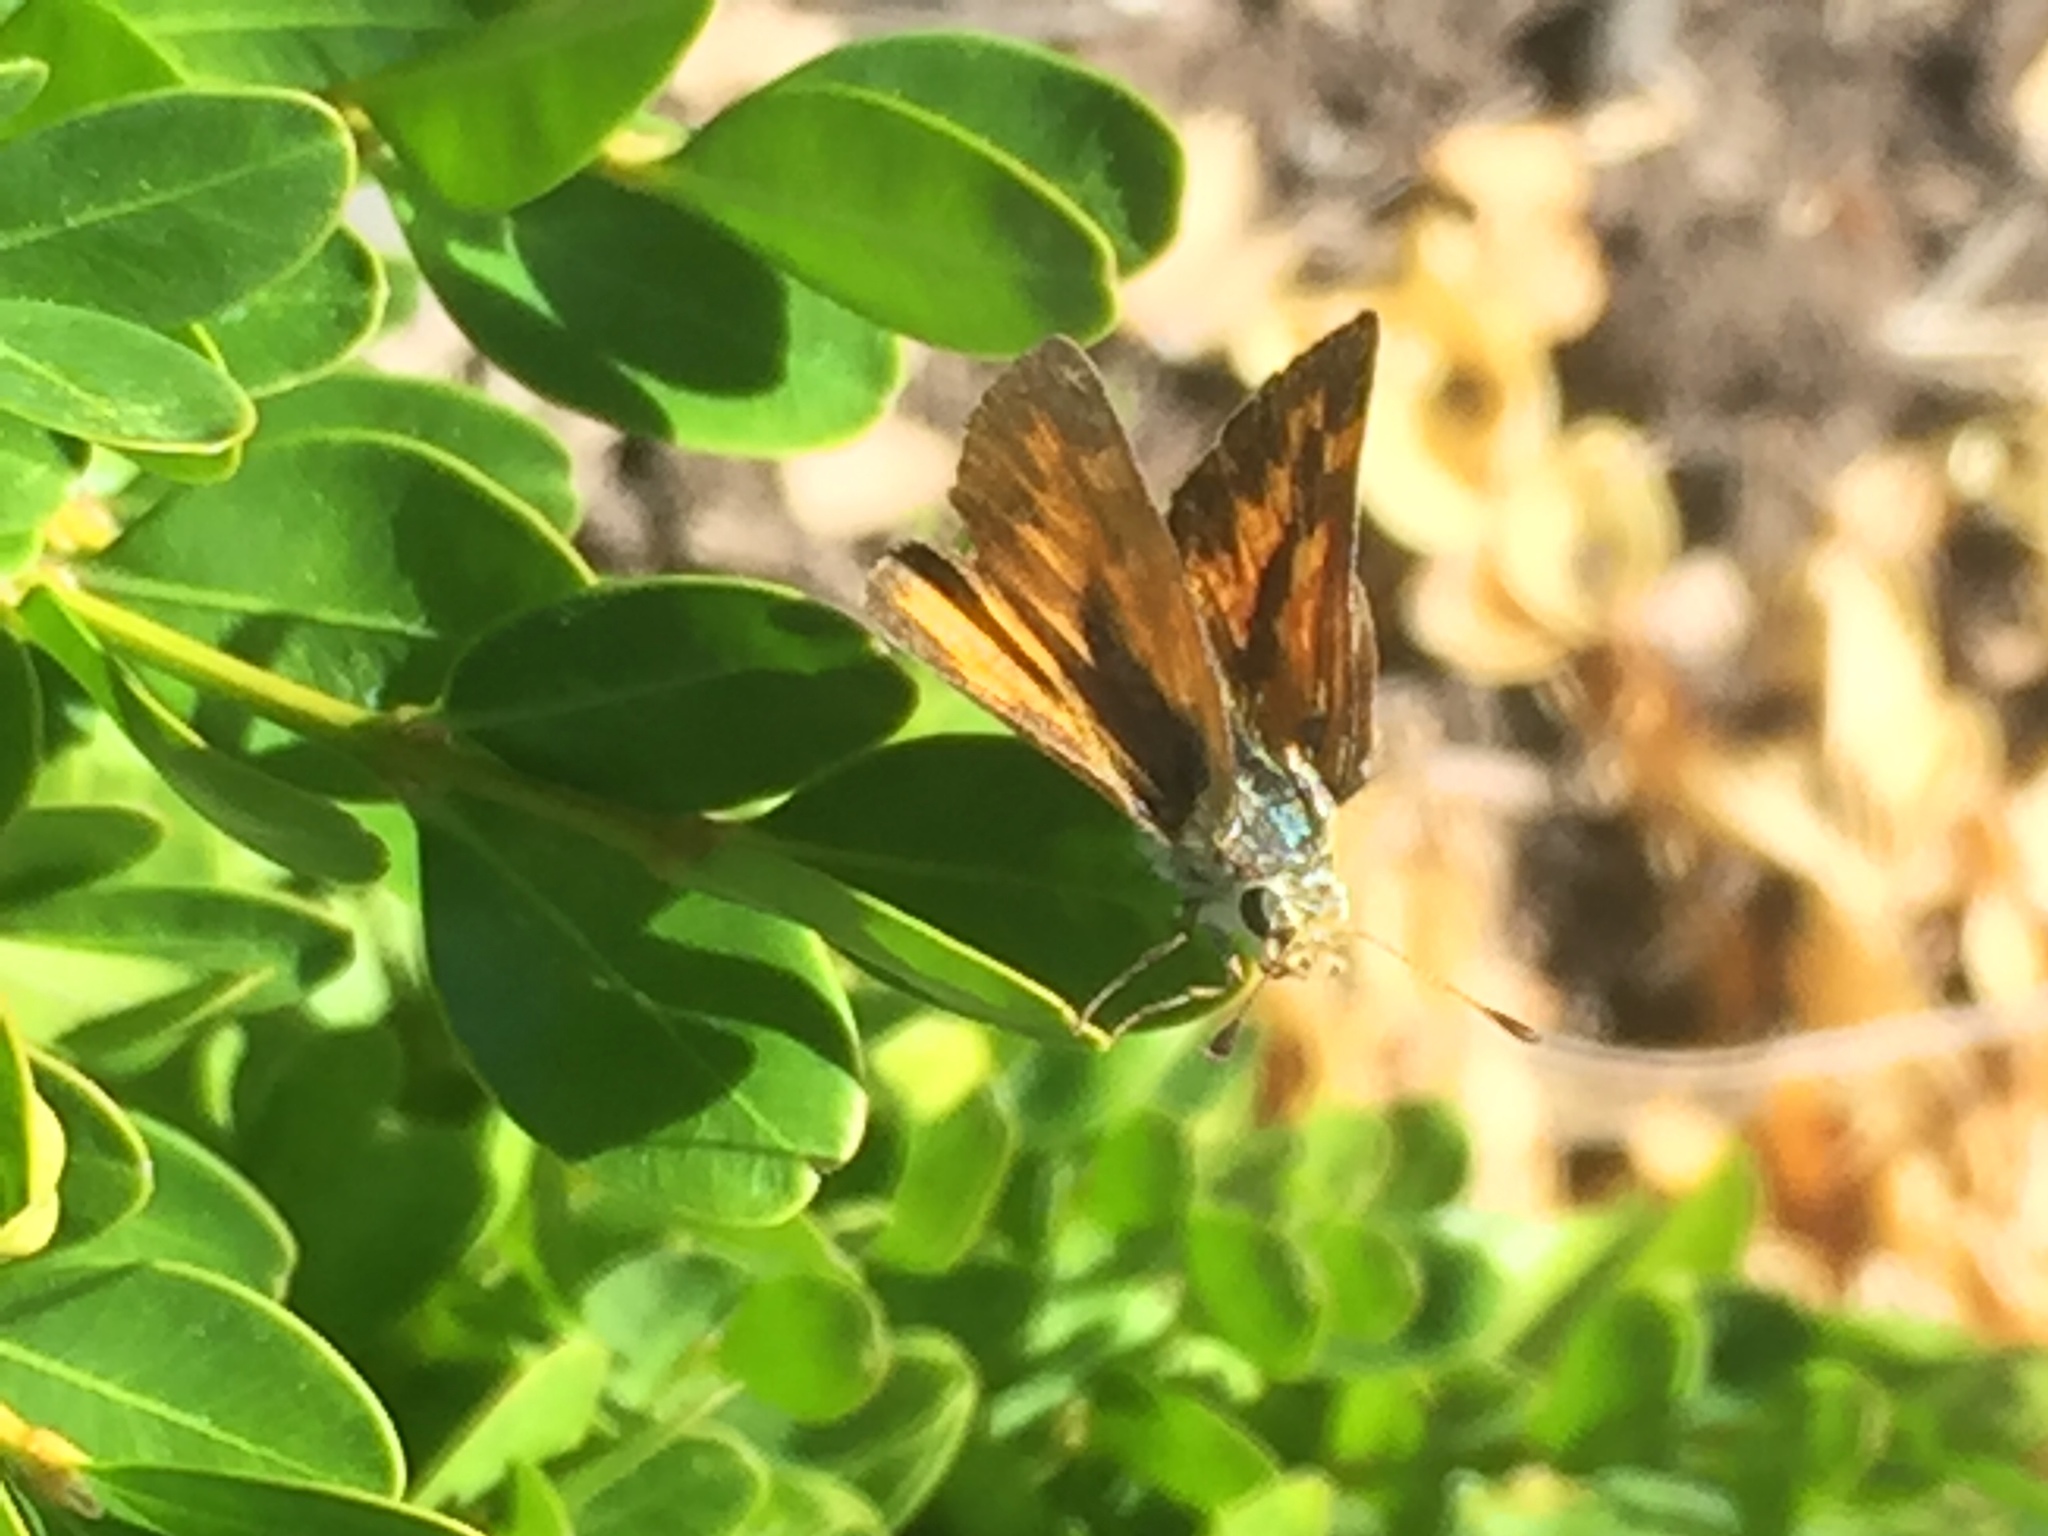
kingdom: Animalia
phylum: Arthropoda
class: Insecta
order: Lepidoptera
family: Hesperiidae
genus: Ochlodes
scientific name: Ochlodes sylvanoides
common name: Woodland skipper
